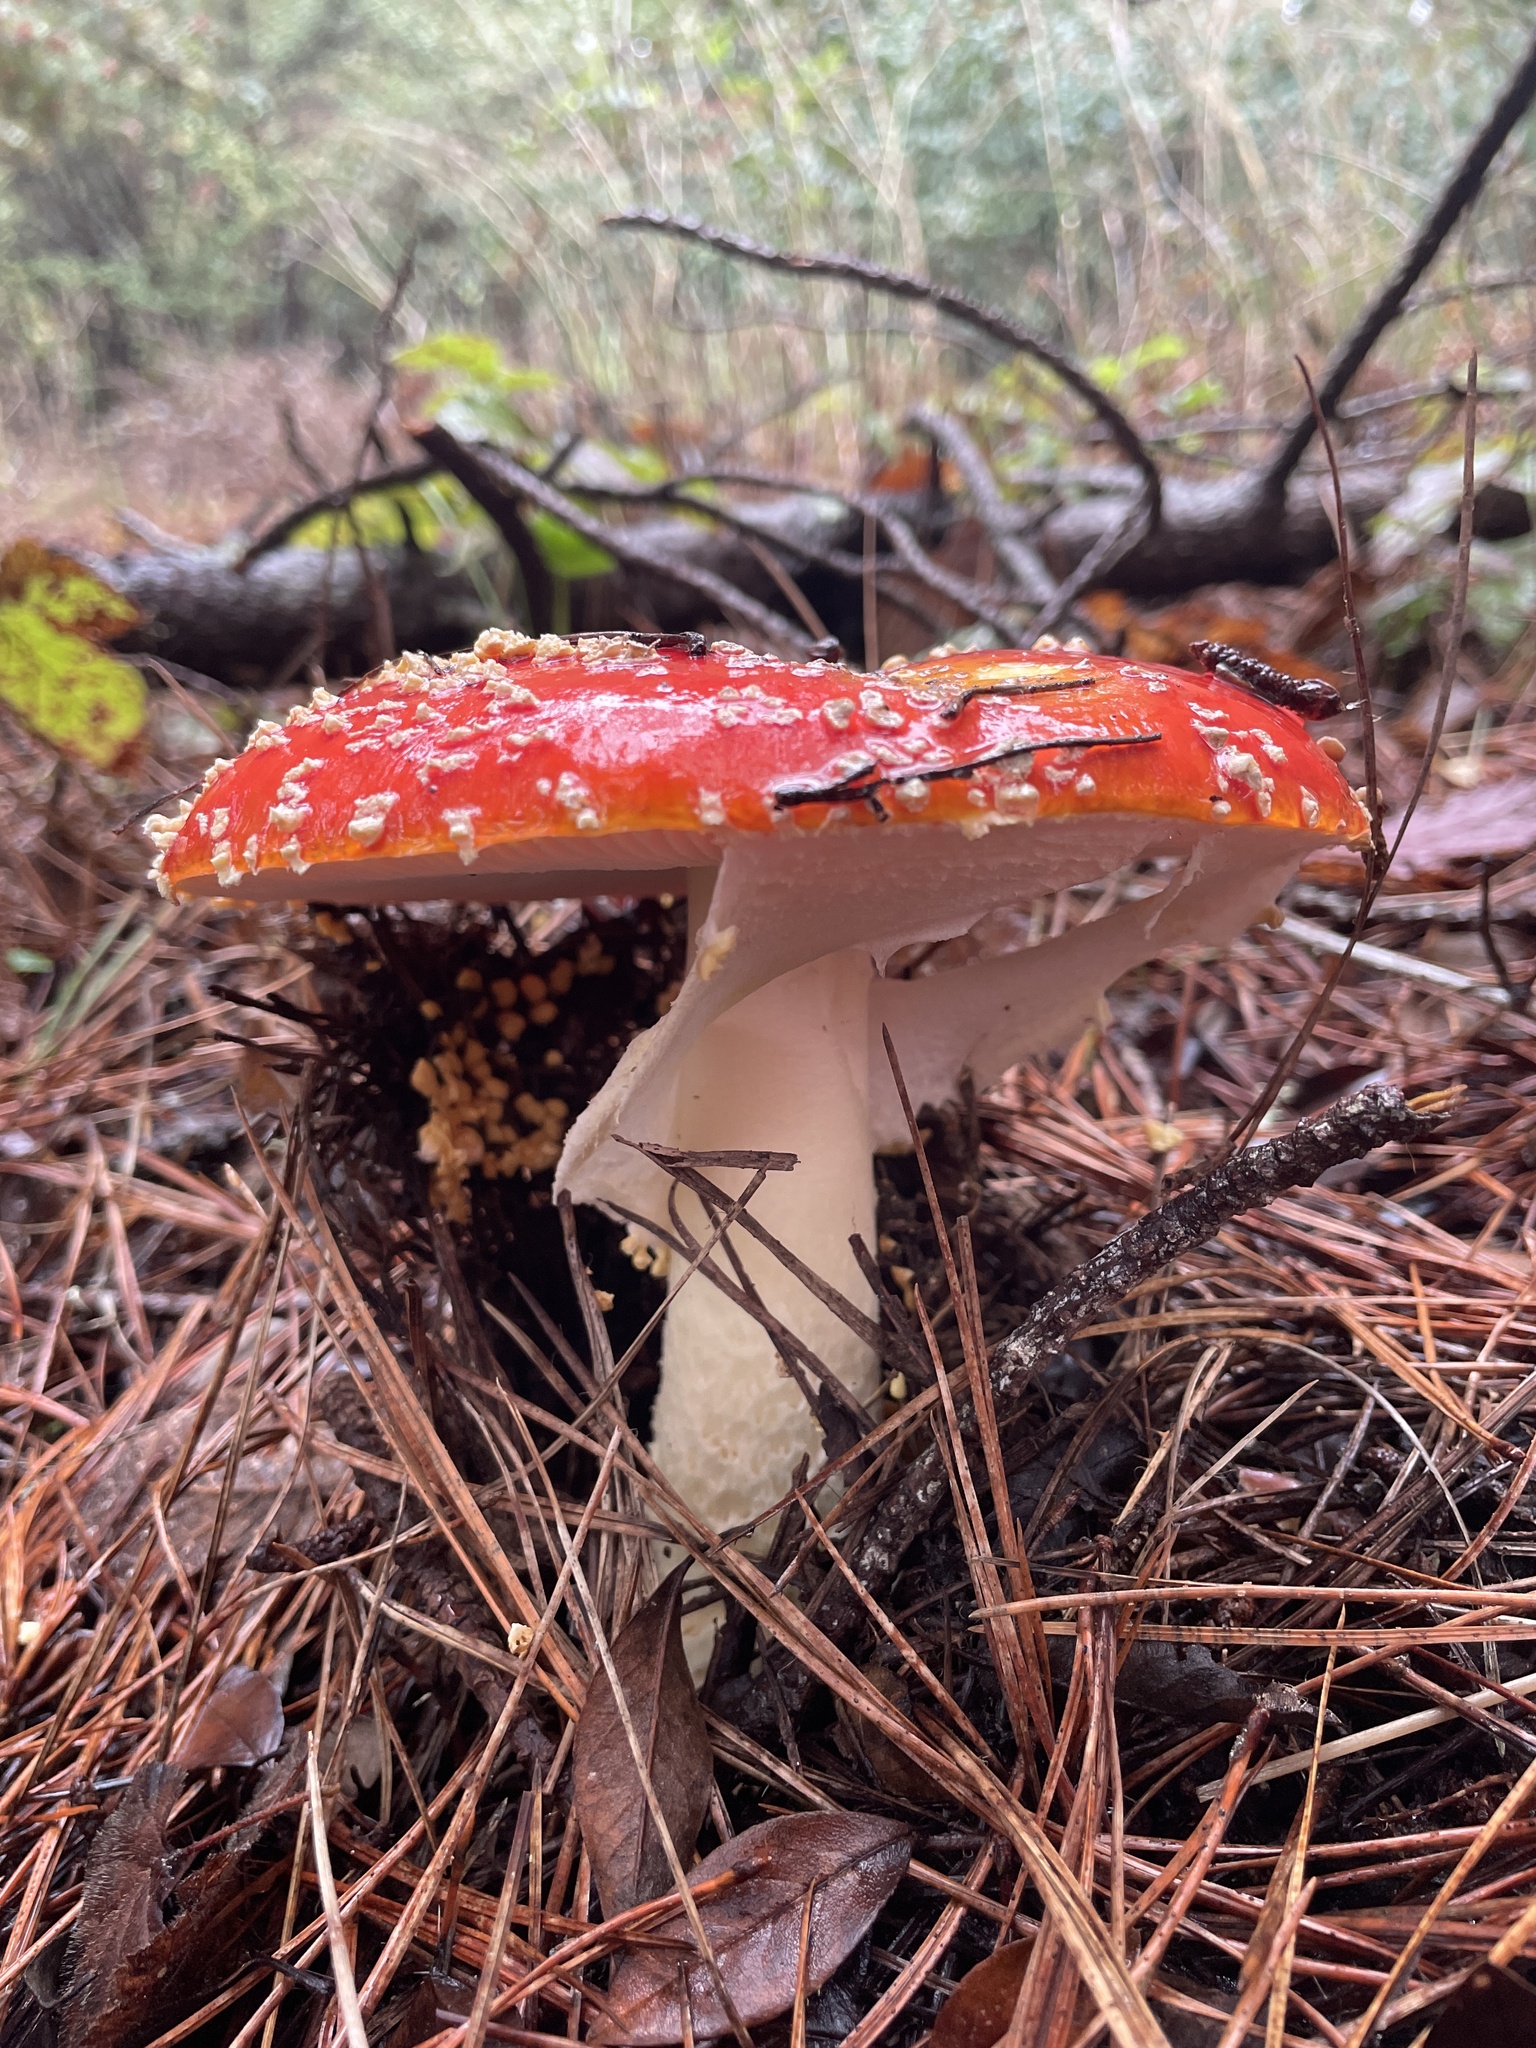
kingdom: Fungi
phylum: Basidiomycota
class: Agaricomycetes
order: Agaricales
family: Amanitaceae
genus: Amanita
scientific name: Amanita muscaria
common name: Fly agaric
